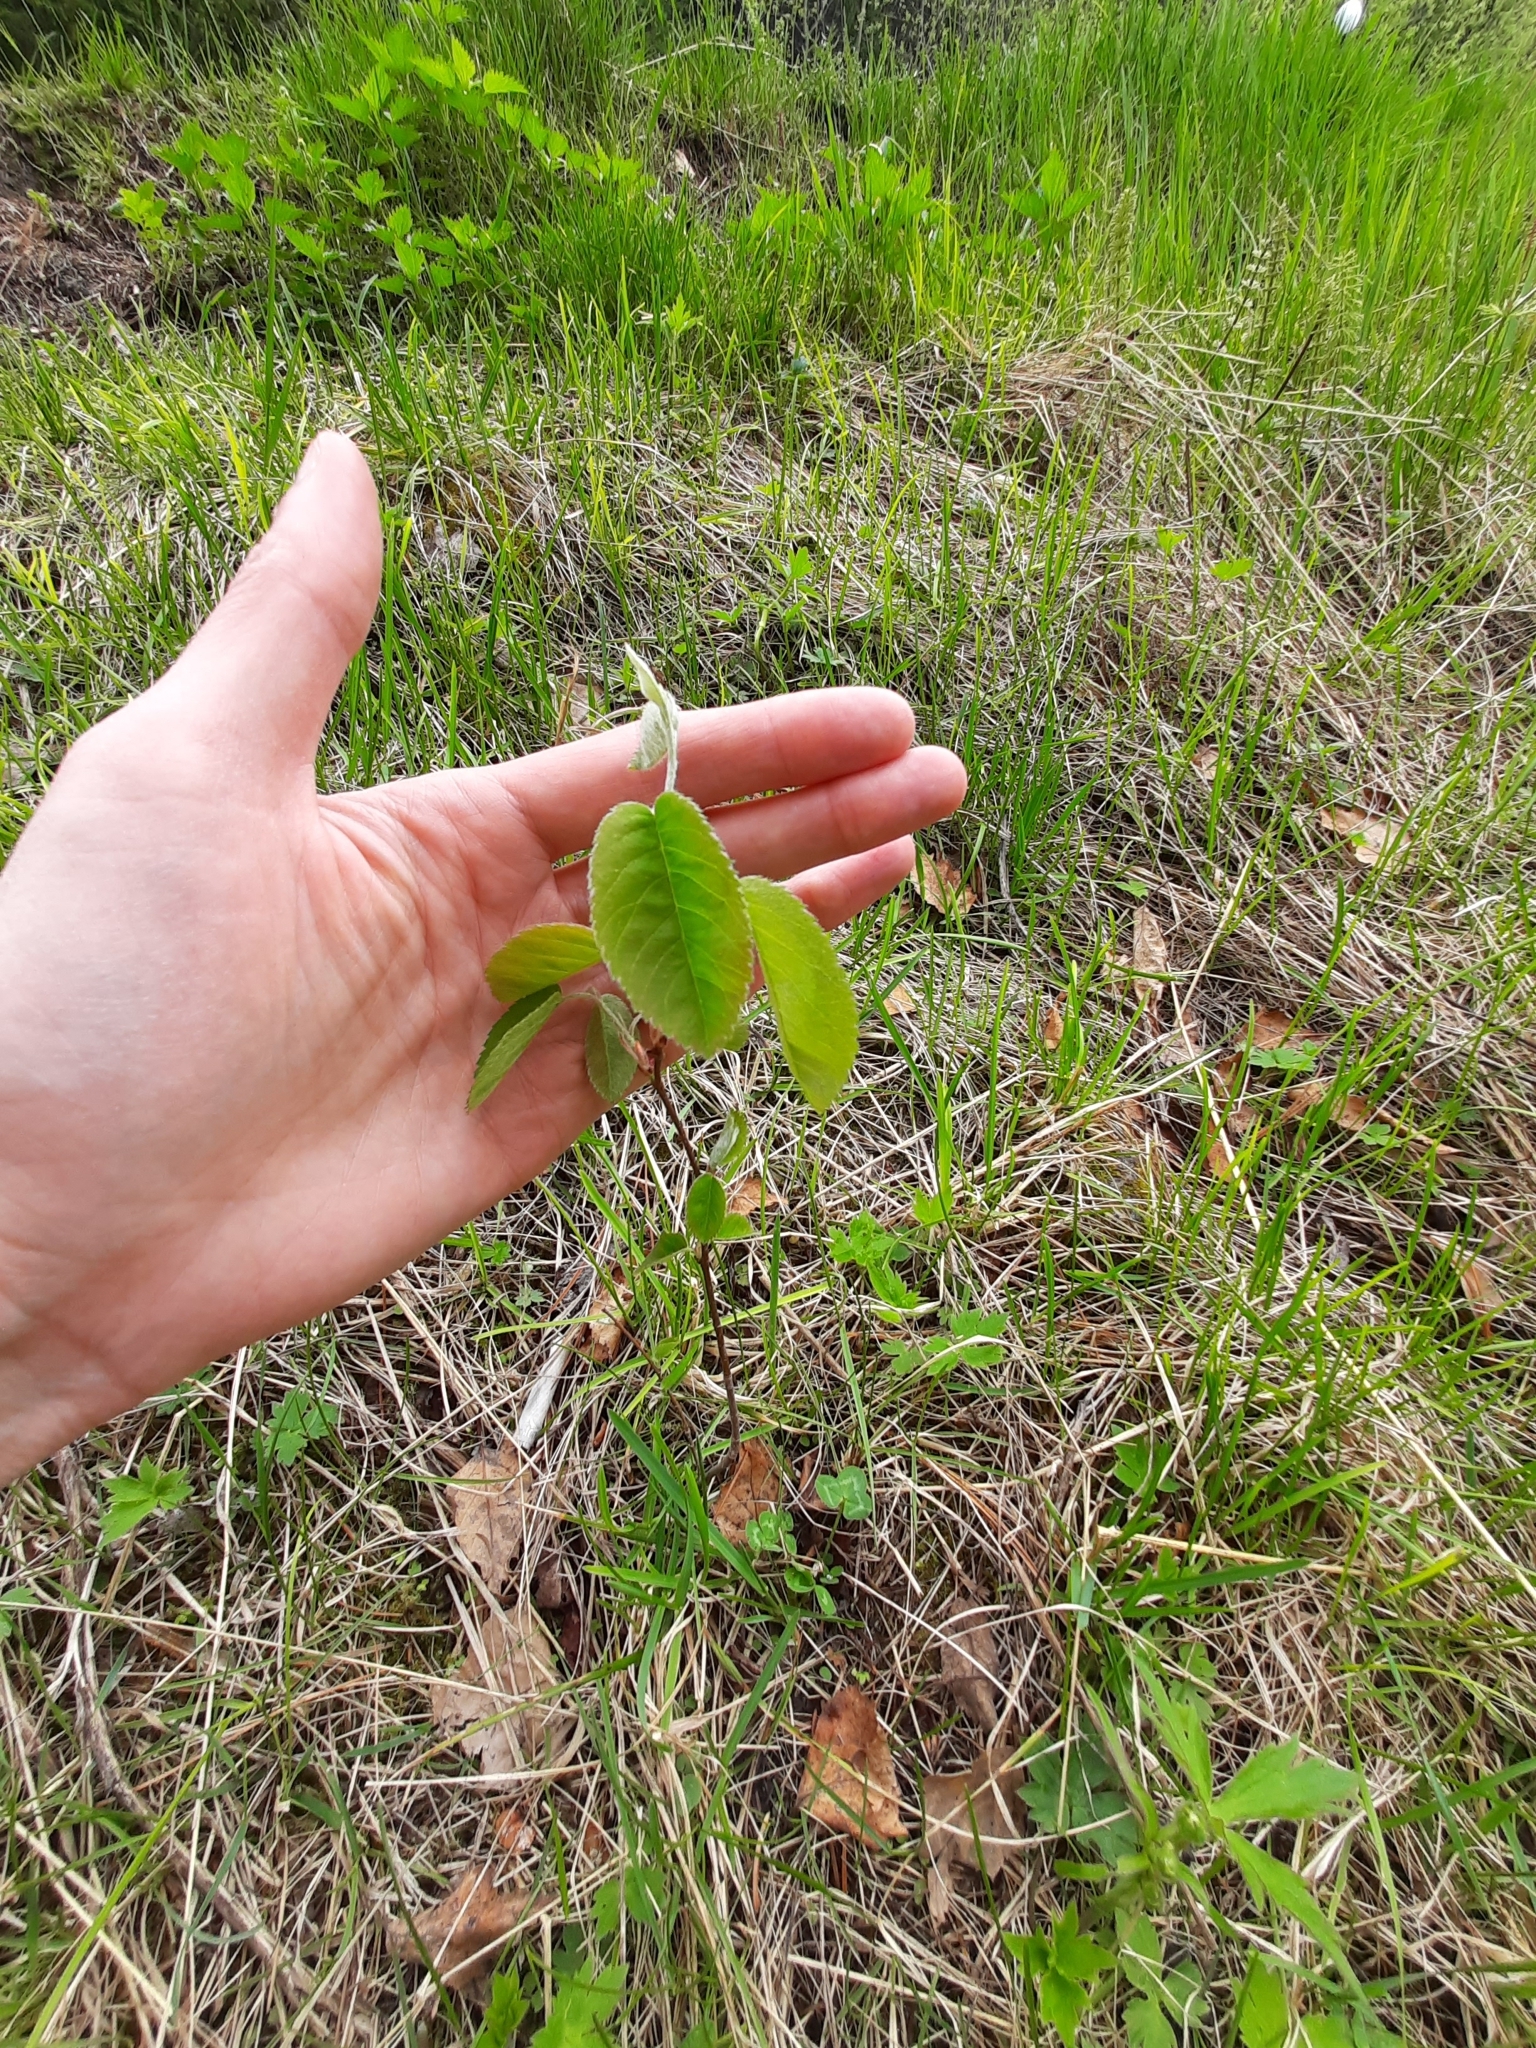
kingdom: Plantae
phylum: Tracheophyta
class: Magnoliopsida
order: Rosales
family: Rosaceae
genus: Amelanchier
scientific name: Amelanchier
